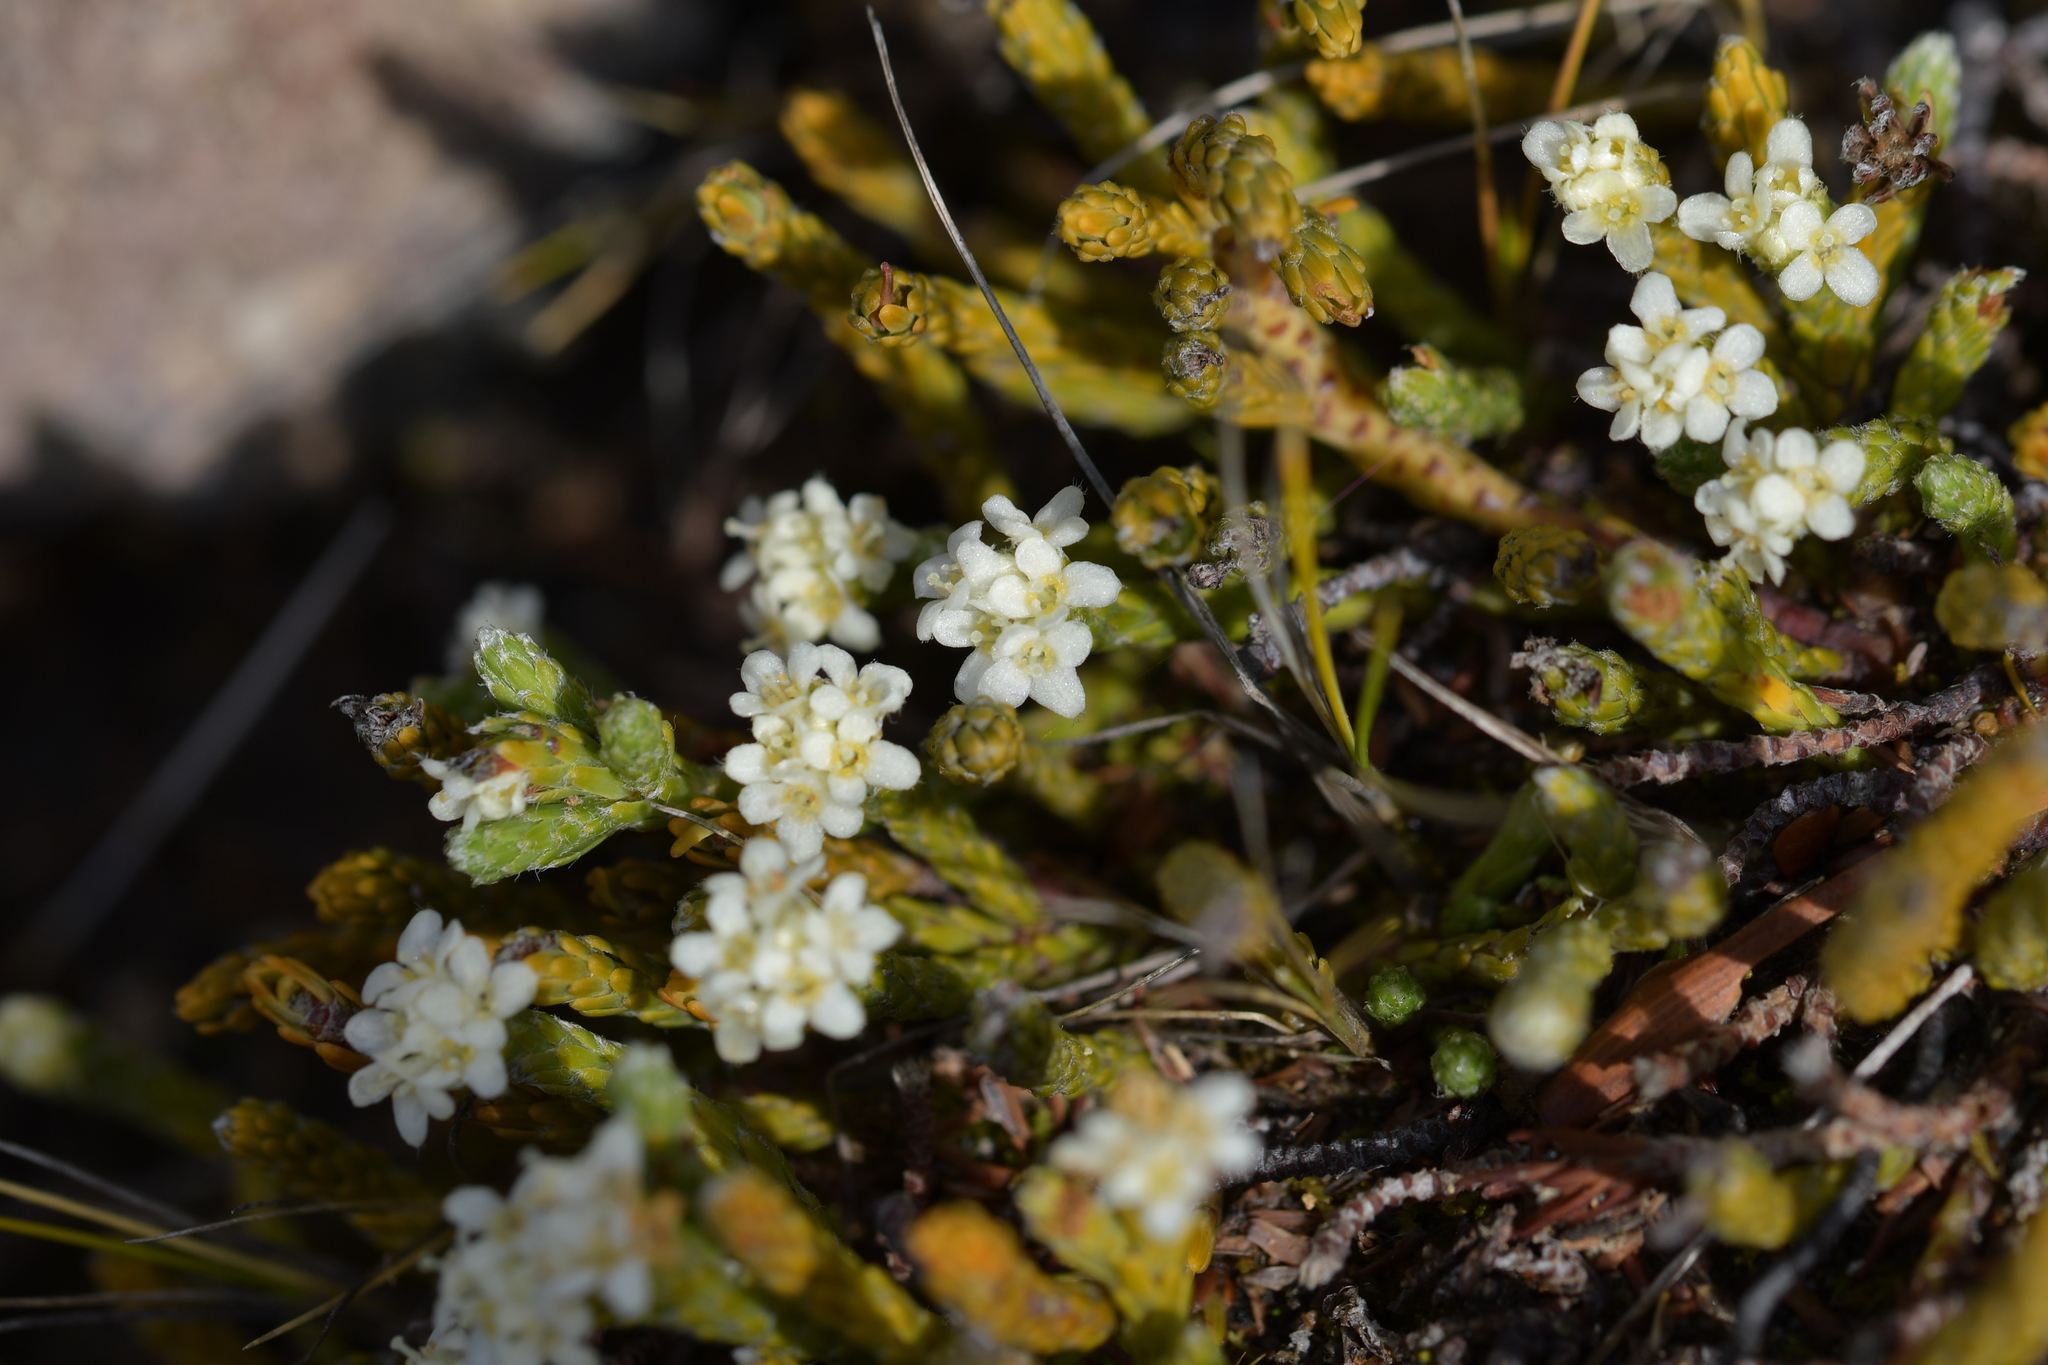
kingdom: Plantae
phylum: Tracheophyta
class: Magnoliopsida
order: Malvales
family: Thymelaeaceae
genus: Kelleria
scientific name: Kelleria dieffenbachii
